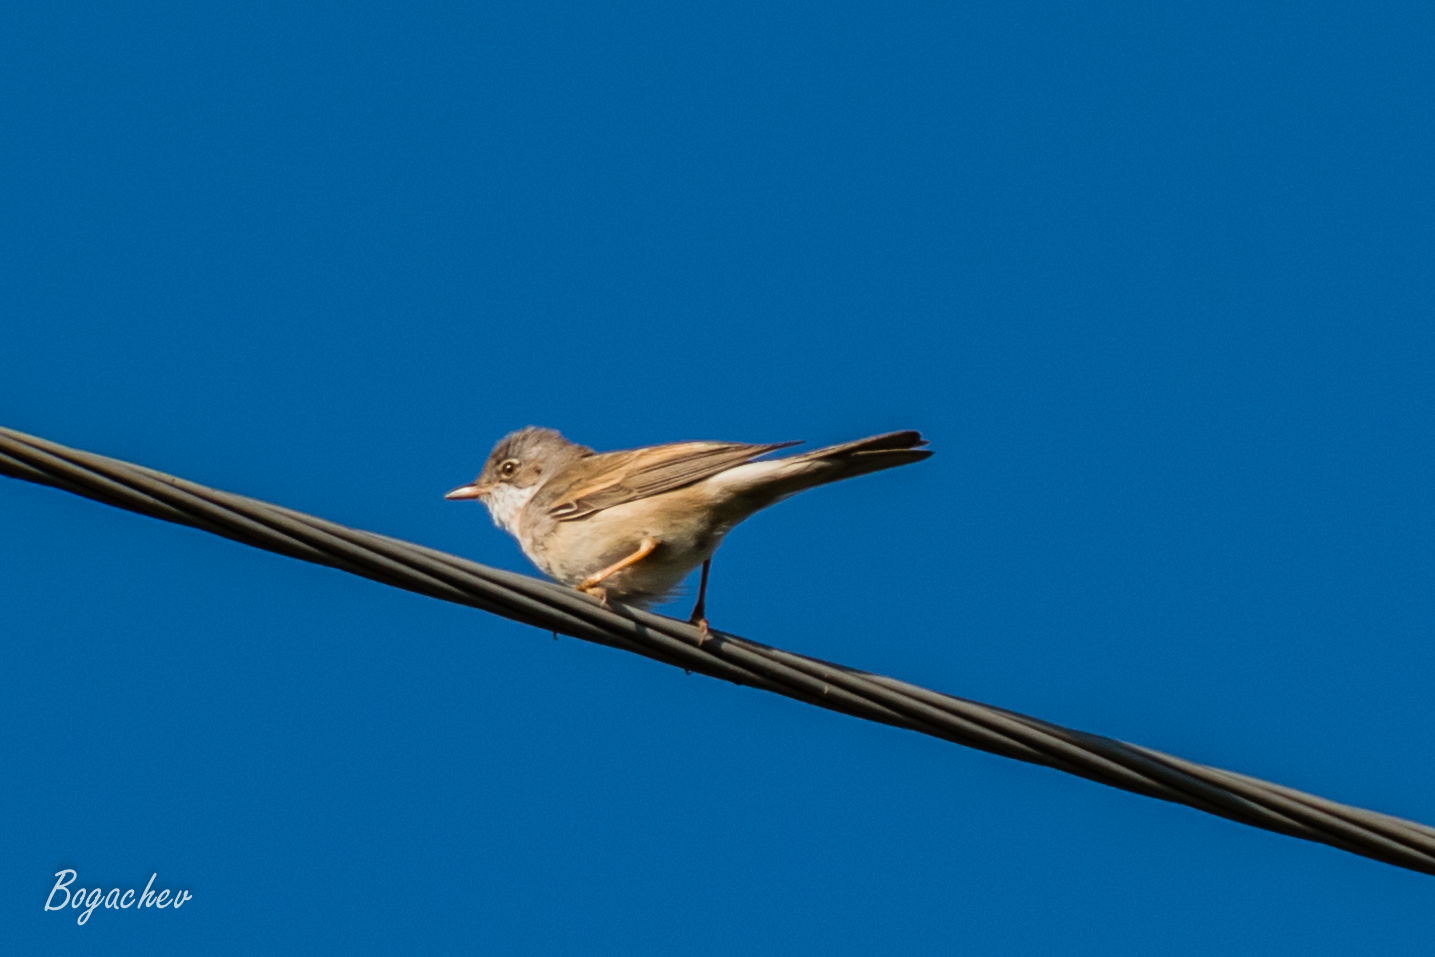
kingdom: Animalia
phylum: Chordata
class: Aves
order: Passeriformes
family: Sylviidae
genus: Sylvia
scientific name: Sylvia communis
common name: Common whitethroat
